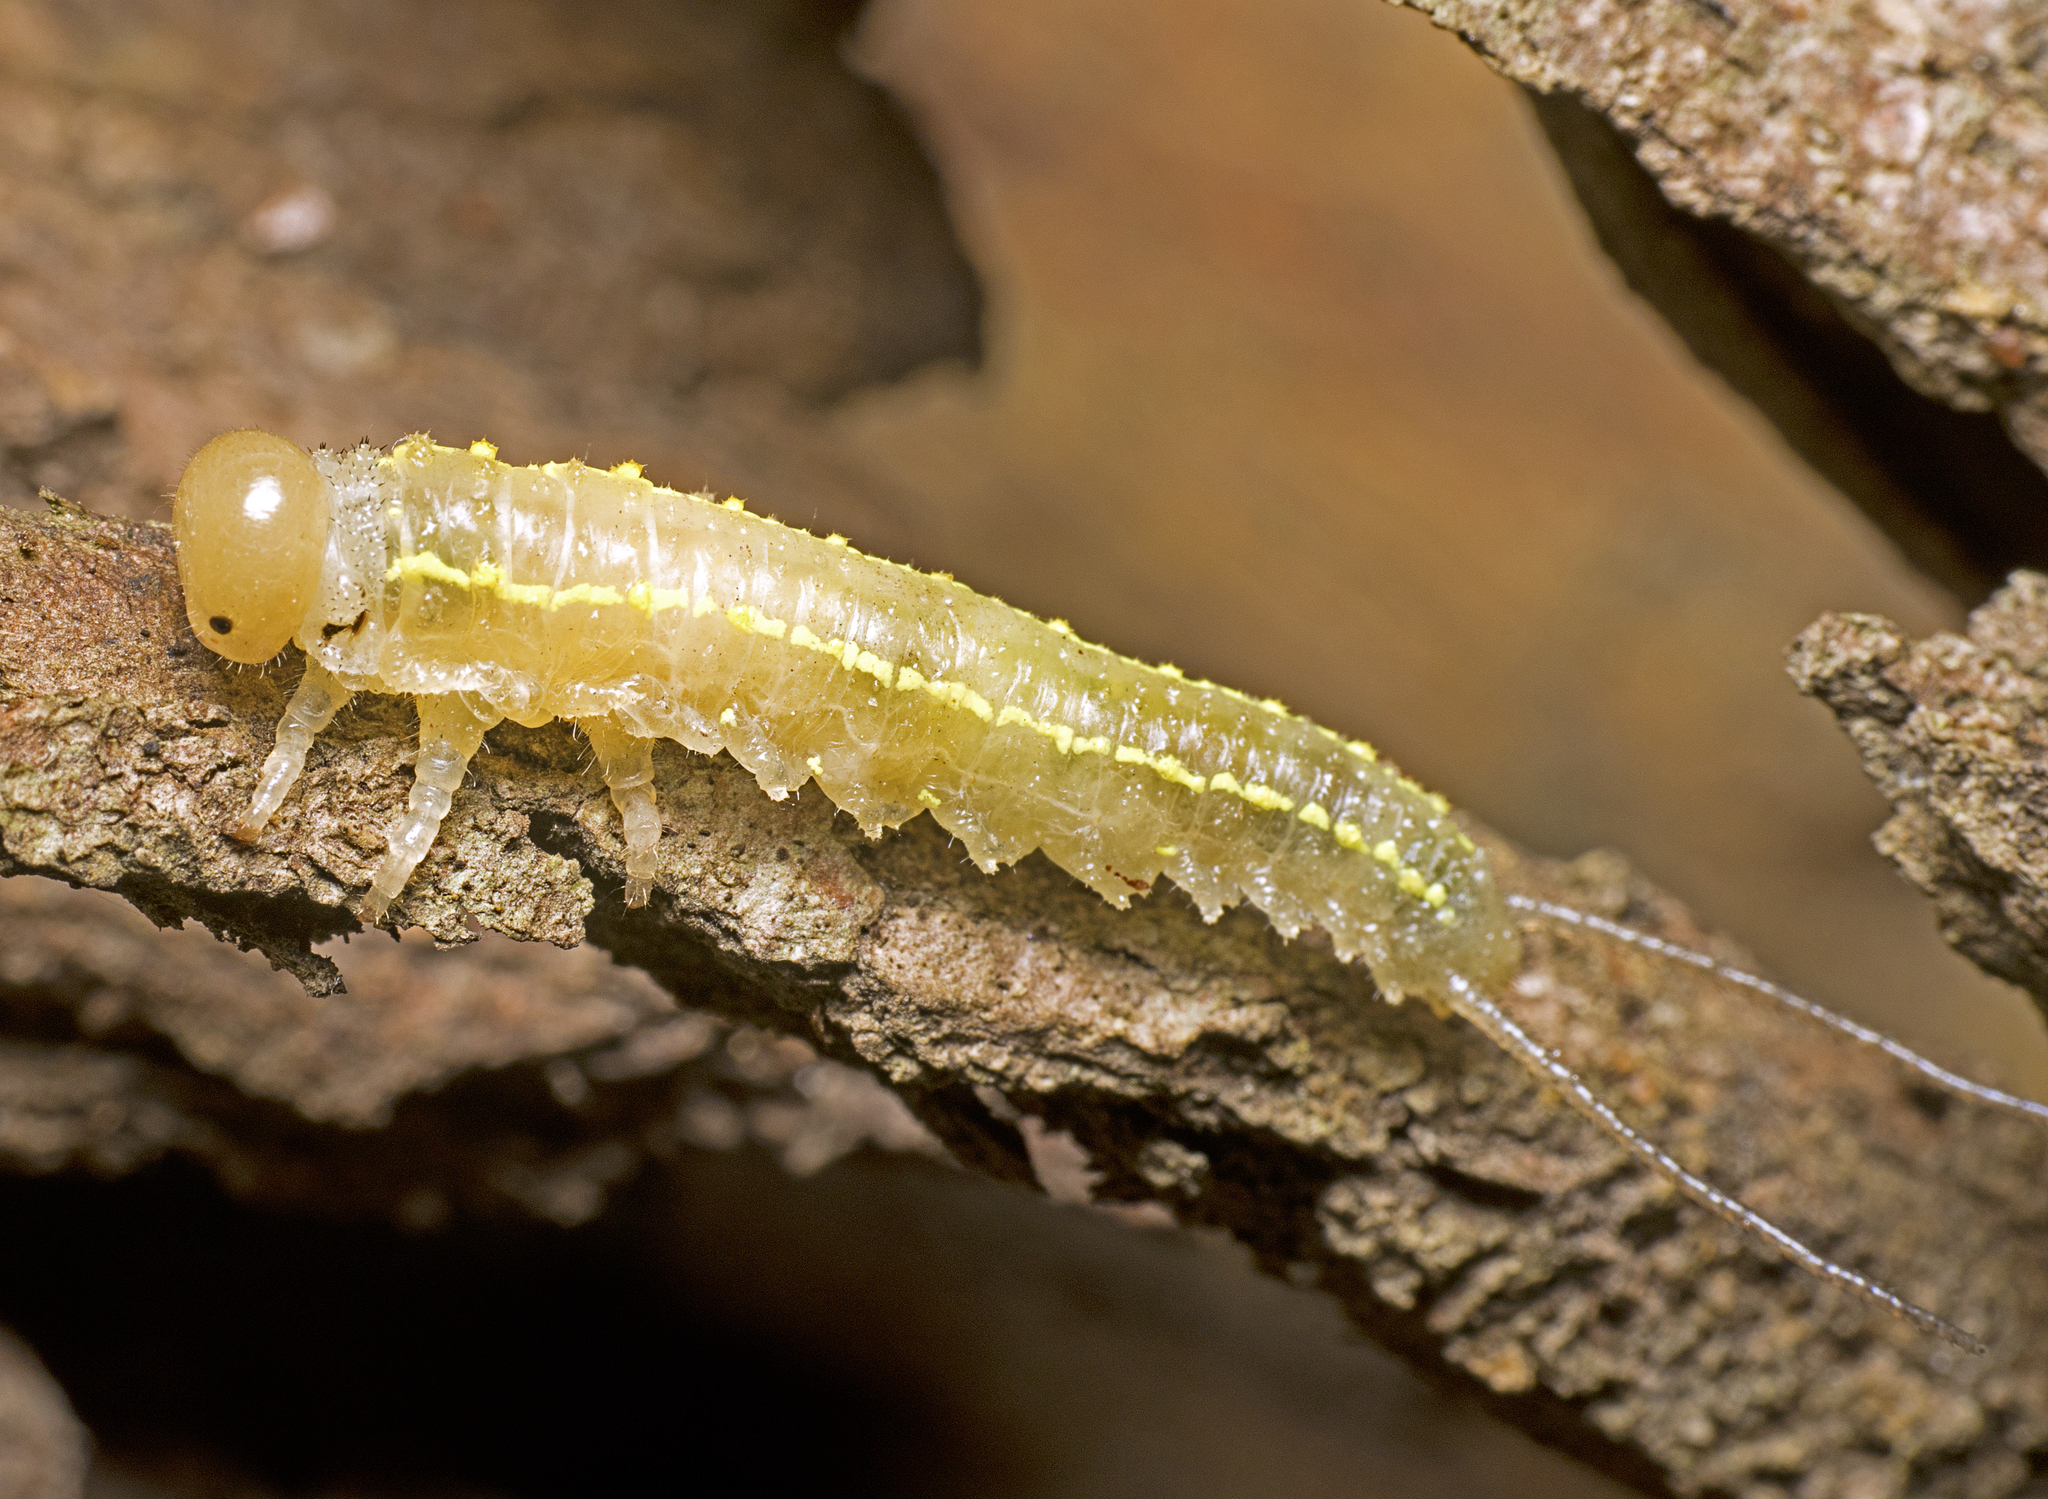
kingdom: Animalia
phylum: Arthropoda
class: Insecta
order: Hymenoptera
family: Pergidae
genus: Philomastix
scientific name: Philomastix
